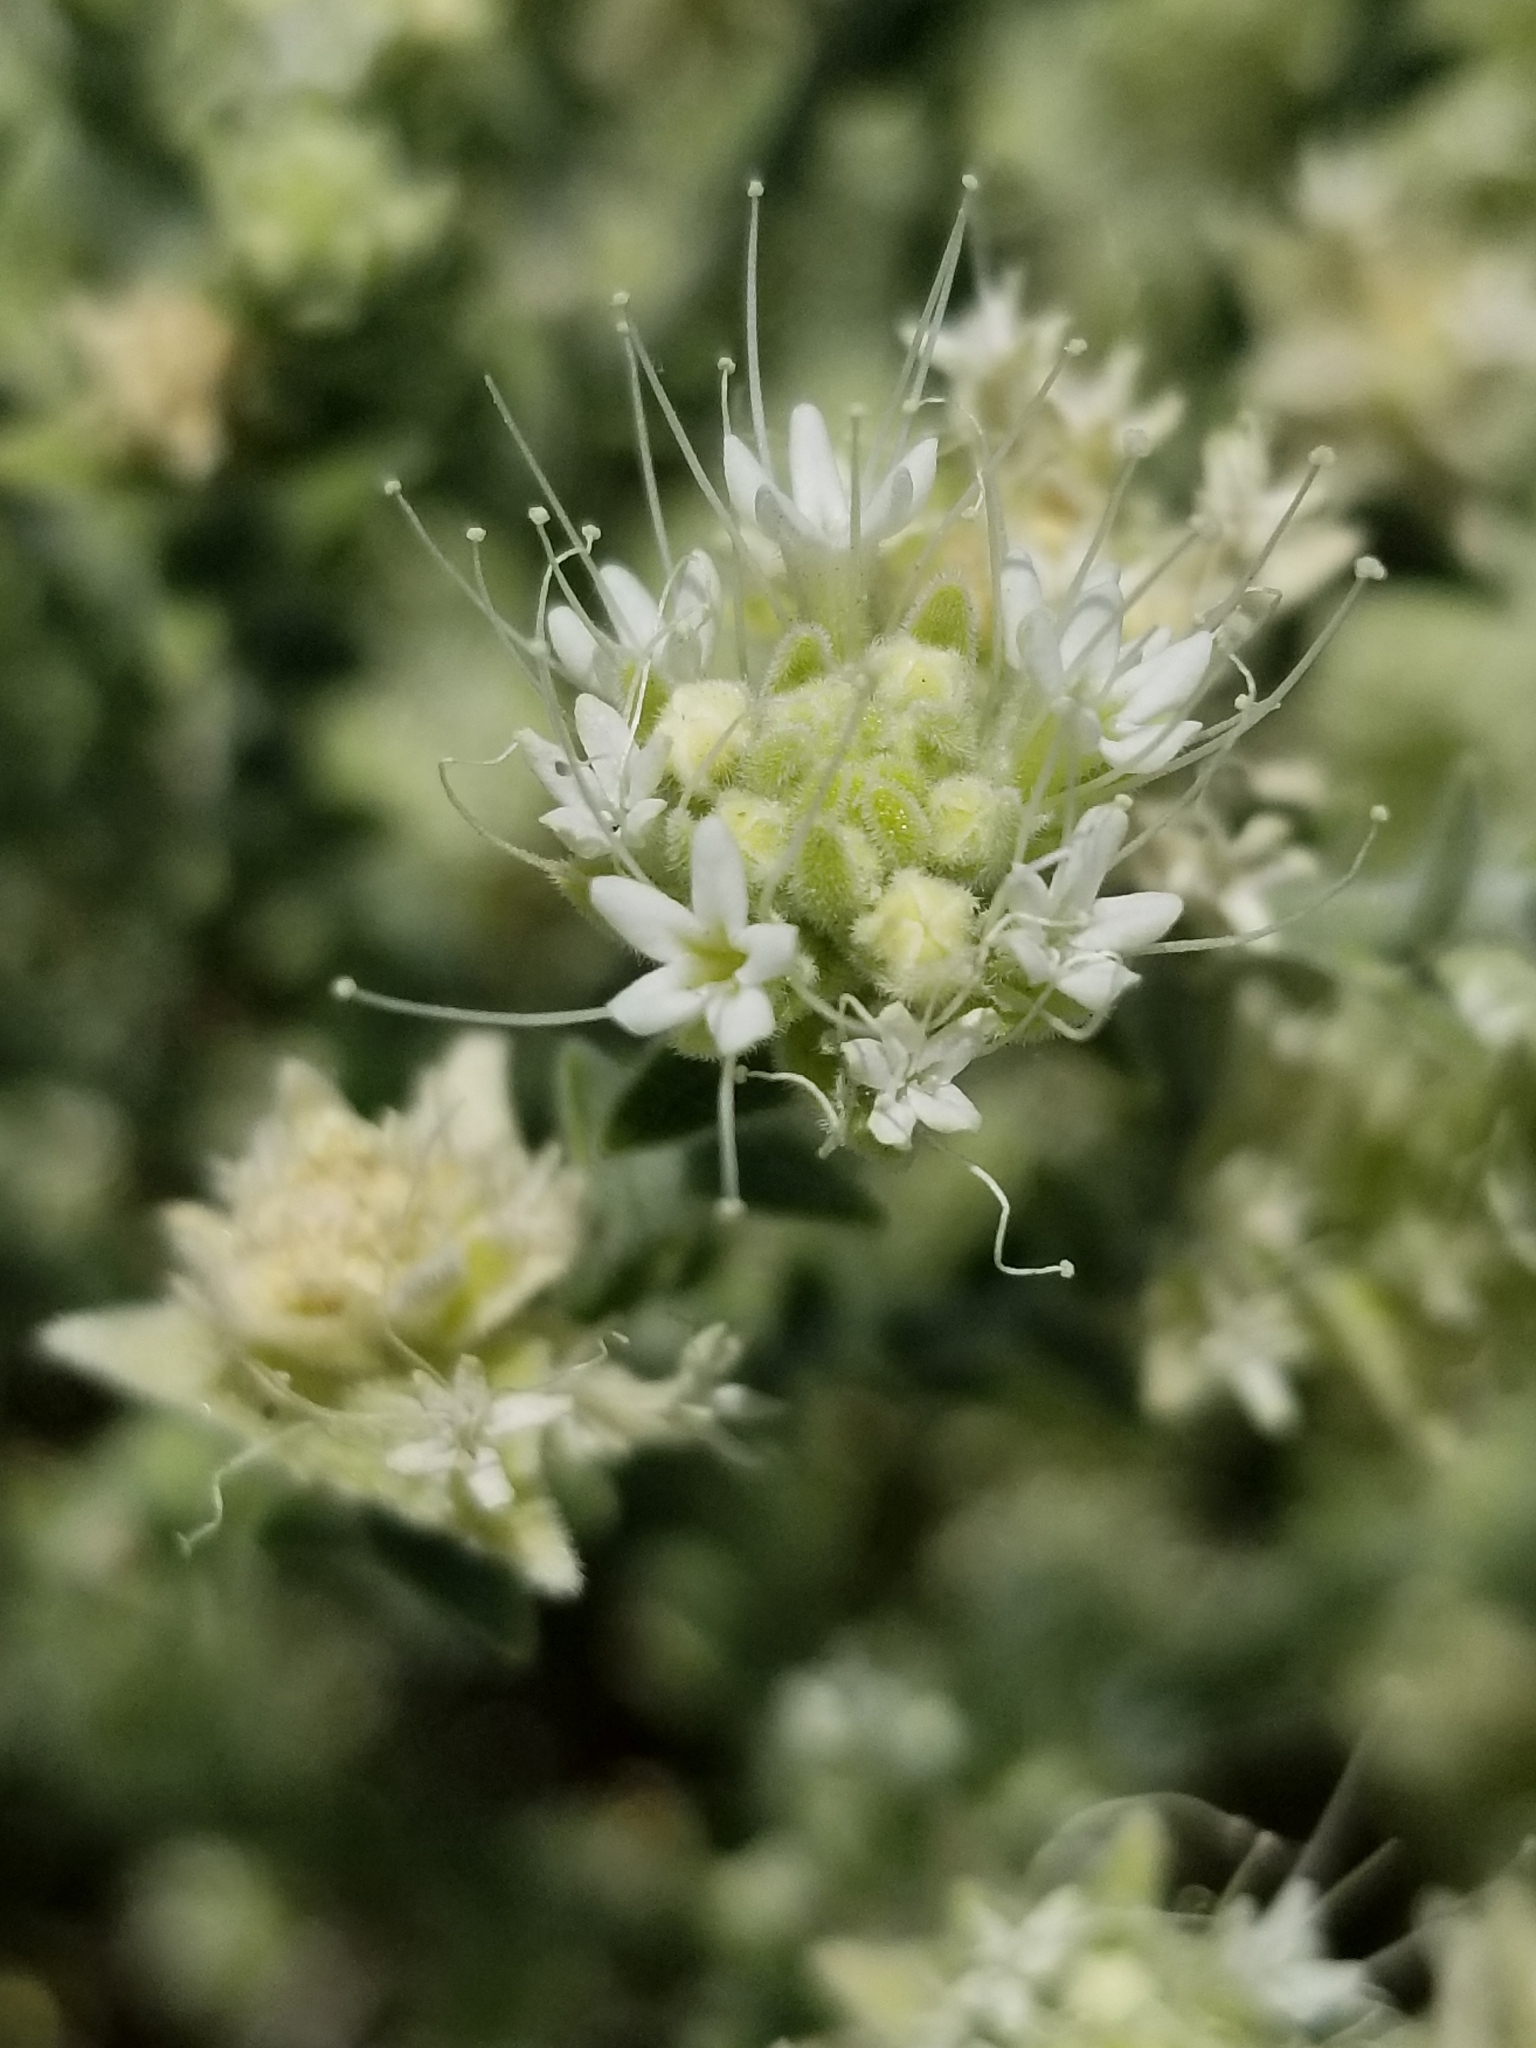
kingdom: Plantae
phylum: Tracheophyta
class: Magnoliopsida
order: Cornales
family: Loasaceae
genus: Petalonyx
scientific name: Petalonyx thurberi
